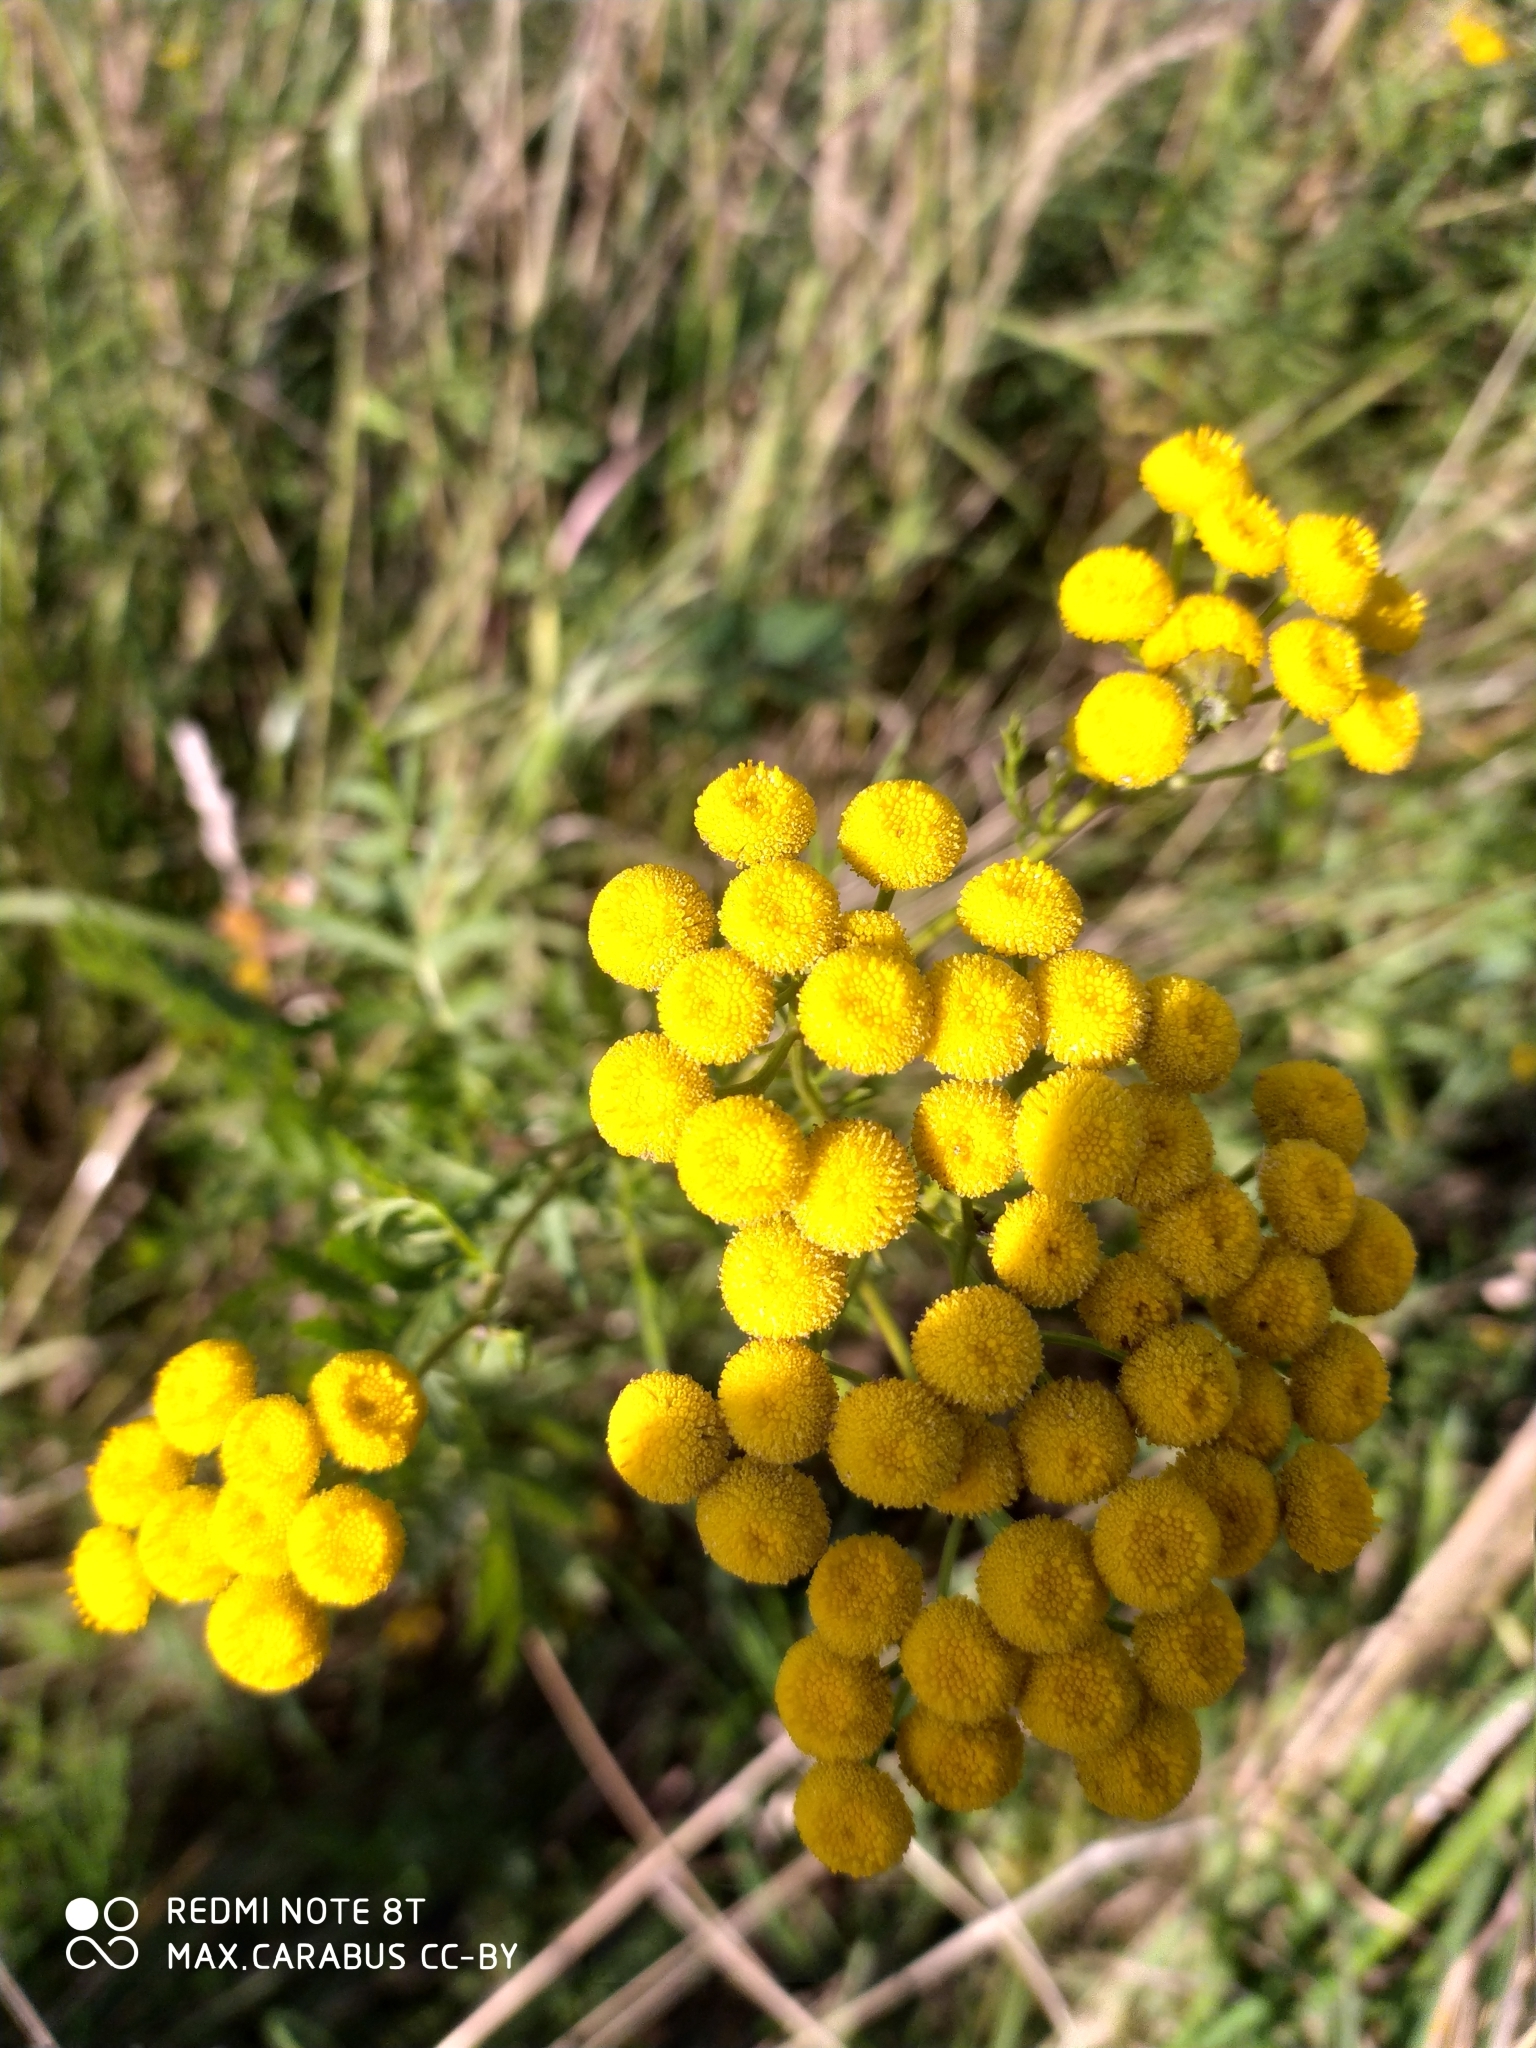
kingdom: Plantae
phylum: Tracheophyta
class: Magnoliopsida
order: Asterales
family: Asteraceae
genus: Tanacetum
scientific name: Tanacetum vulgare
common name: Common tansy
